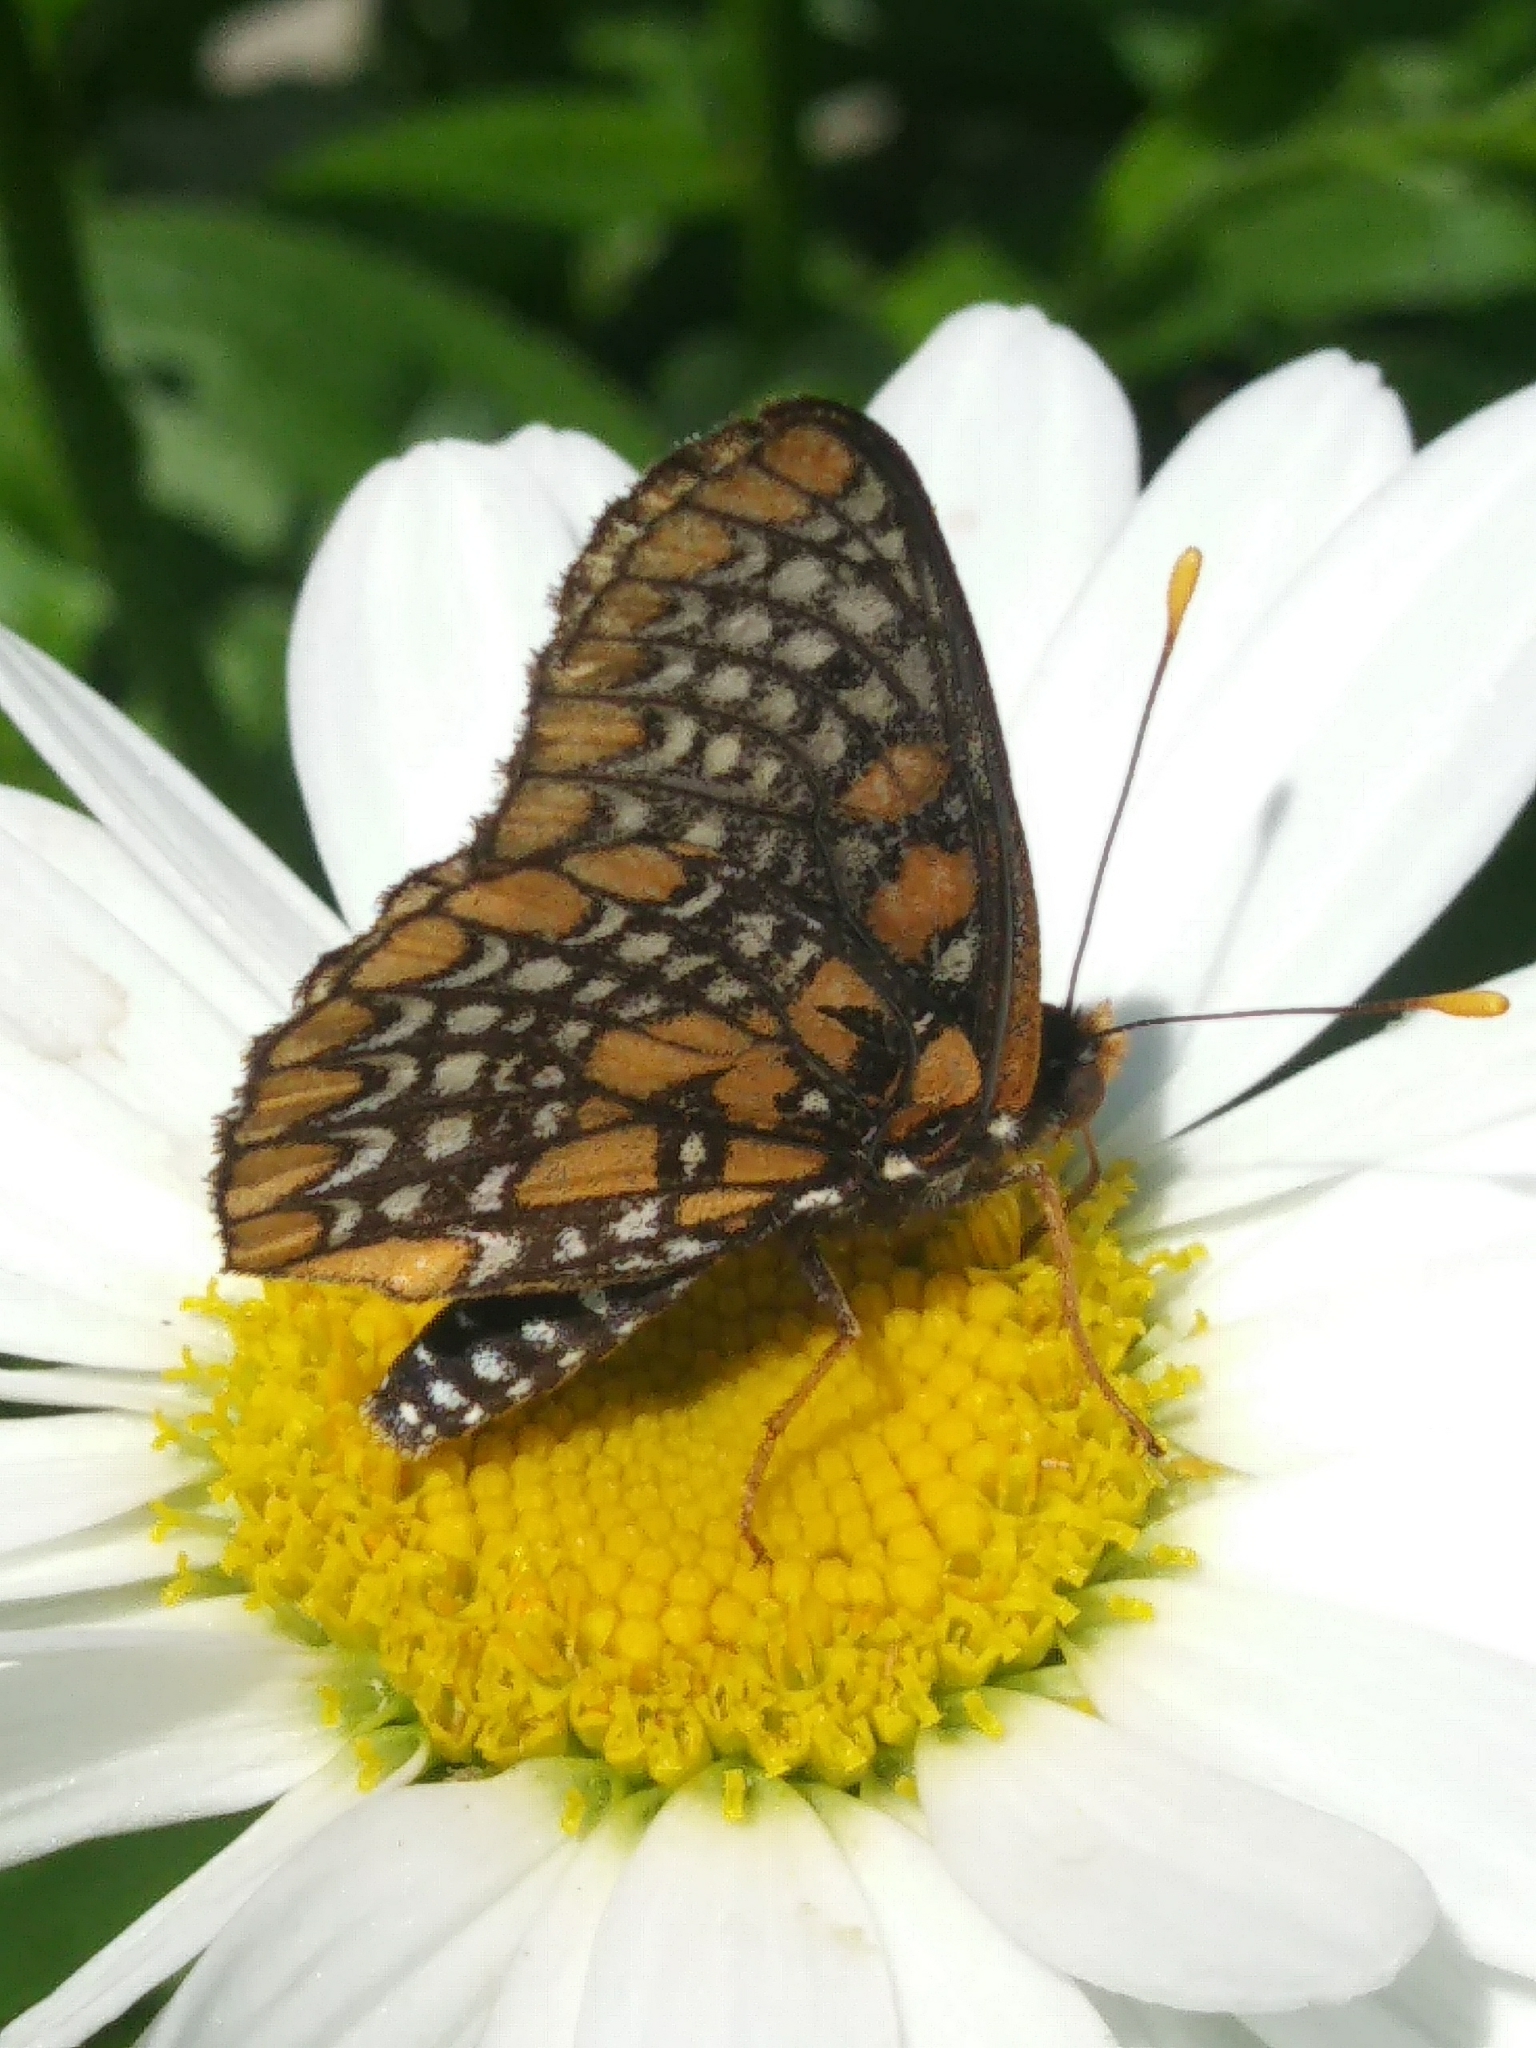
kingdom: Animalia
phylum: Arthropoda
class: Insecta
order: Lepidoptera
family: Nymphalidae
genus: Euphydryas
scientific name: Euphydryas phaeton
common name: Baltimore checkerspot
